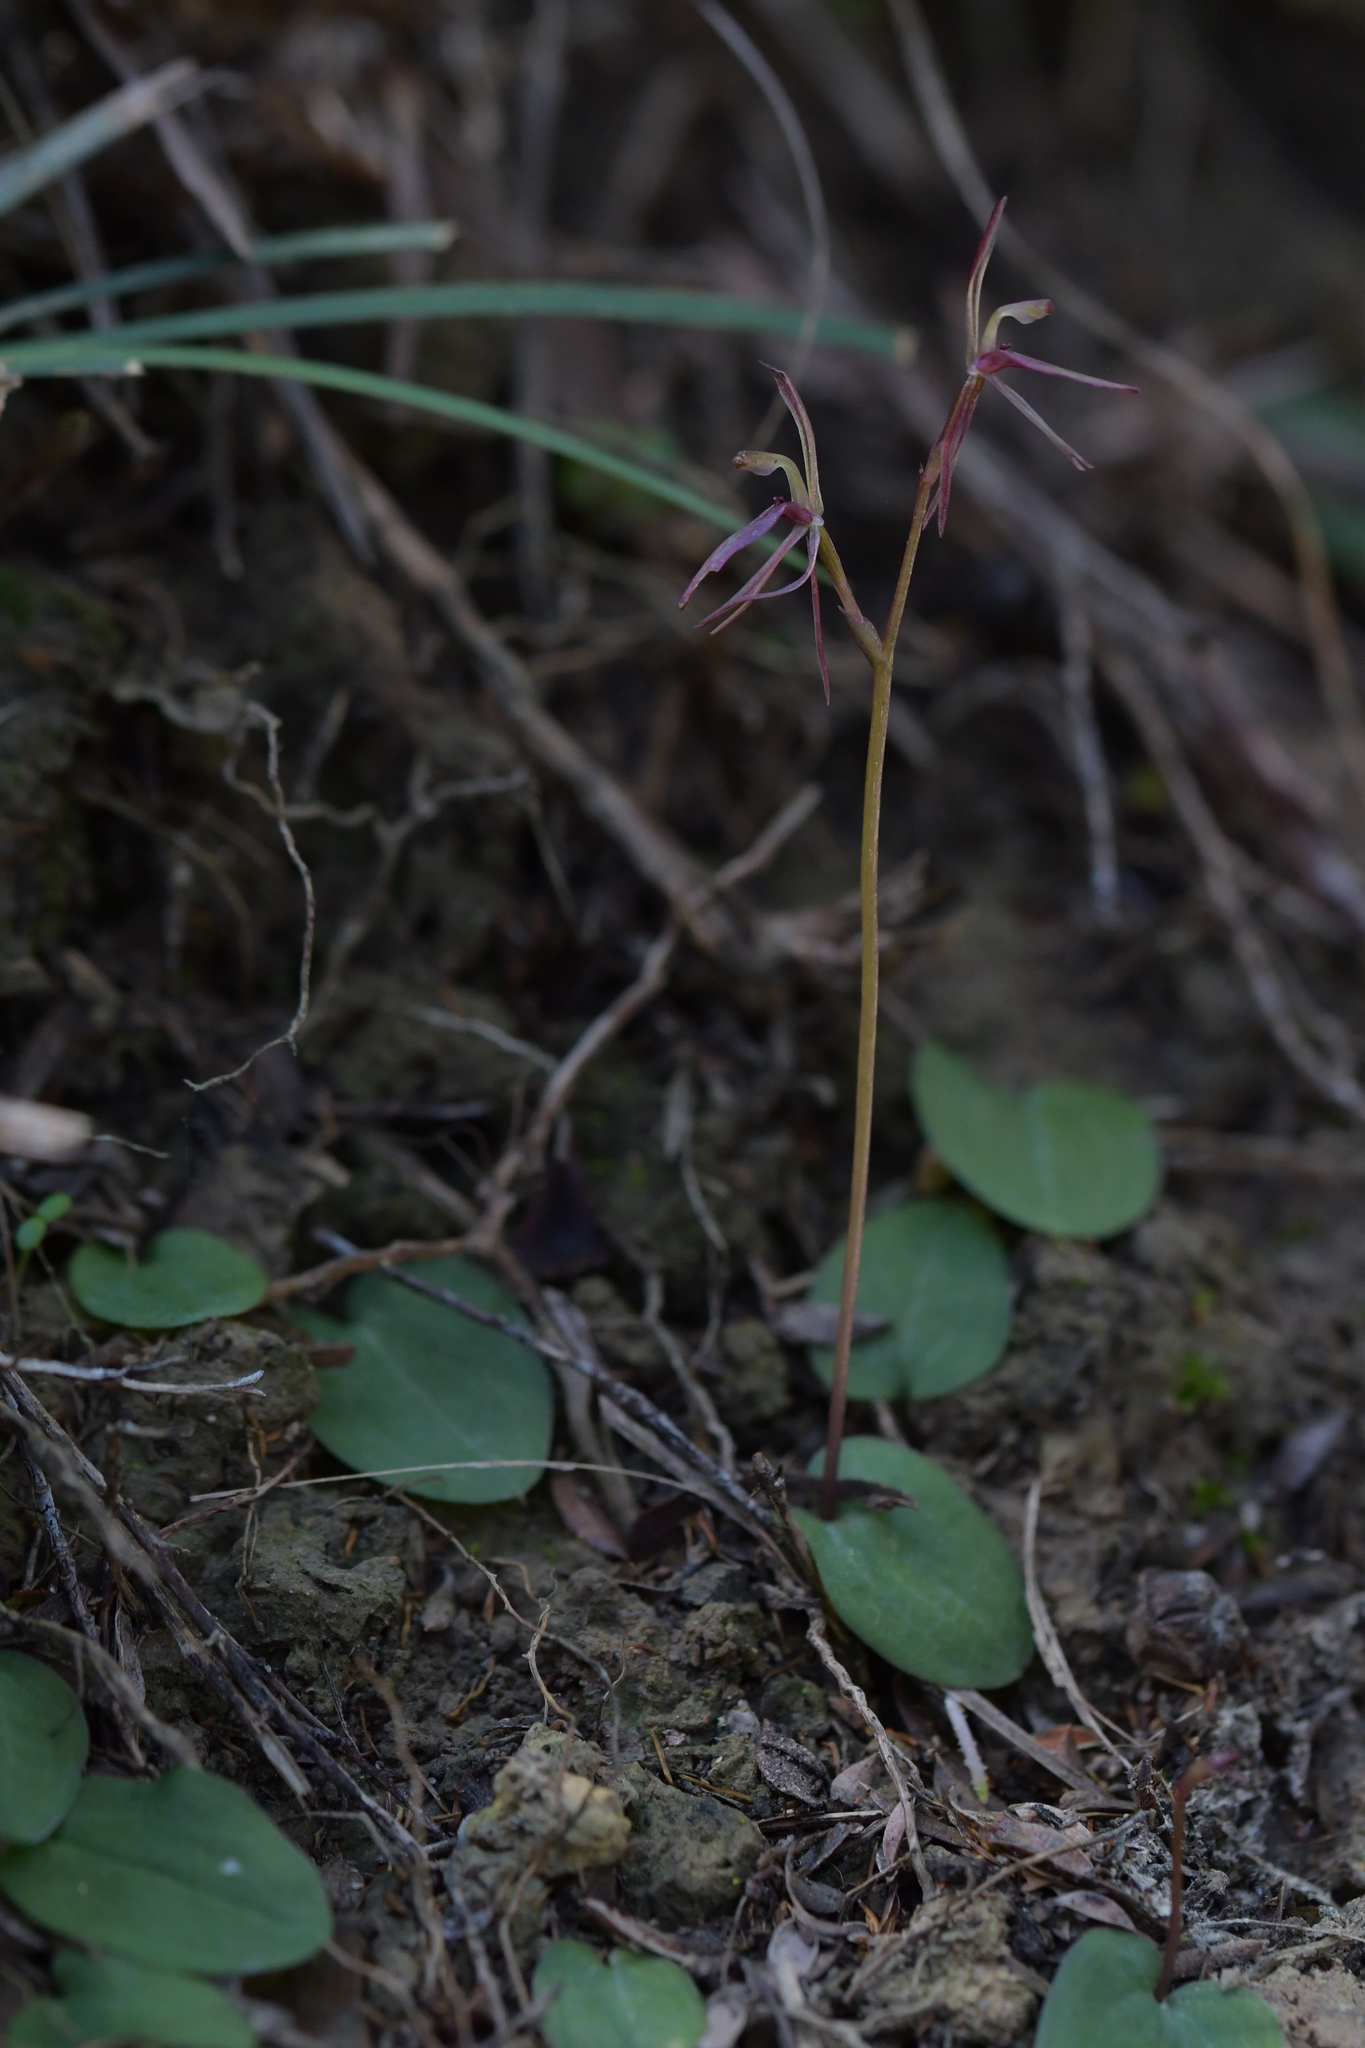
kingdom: Plantae
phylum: Tracheophyta
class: Liliopsida
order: Asparagales
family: Orchidaceae
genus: Cyrtostylis
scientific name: Cyrtostylis rotundifolia
